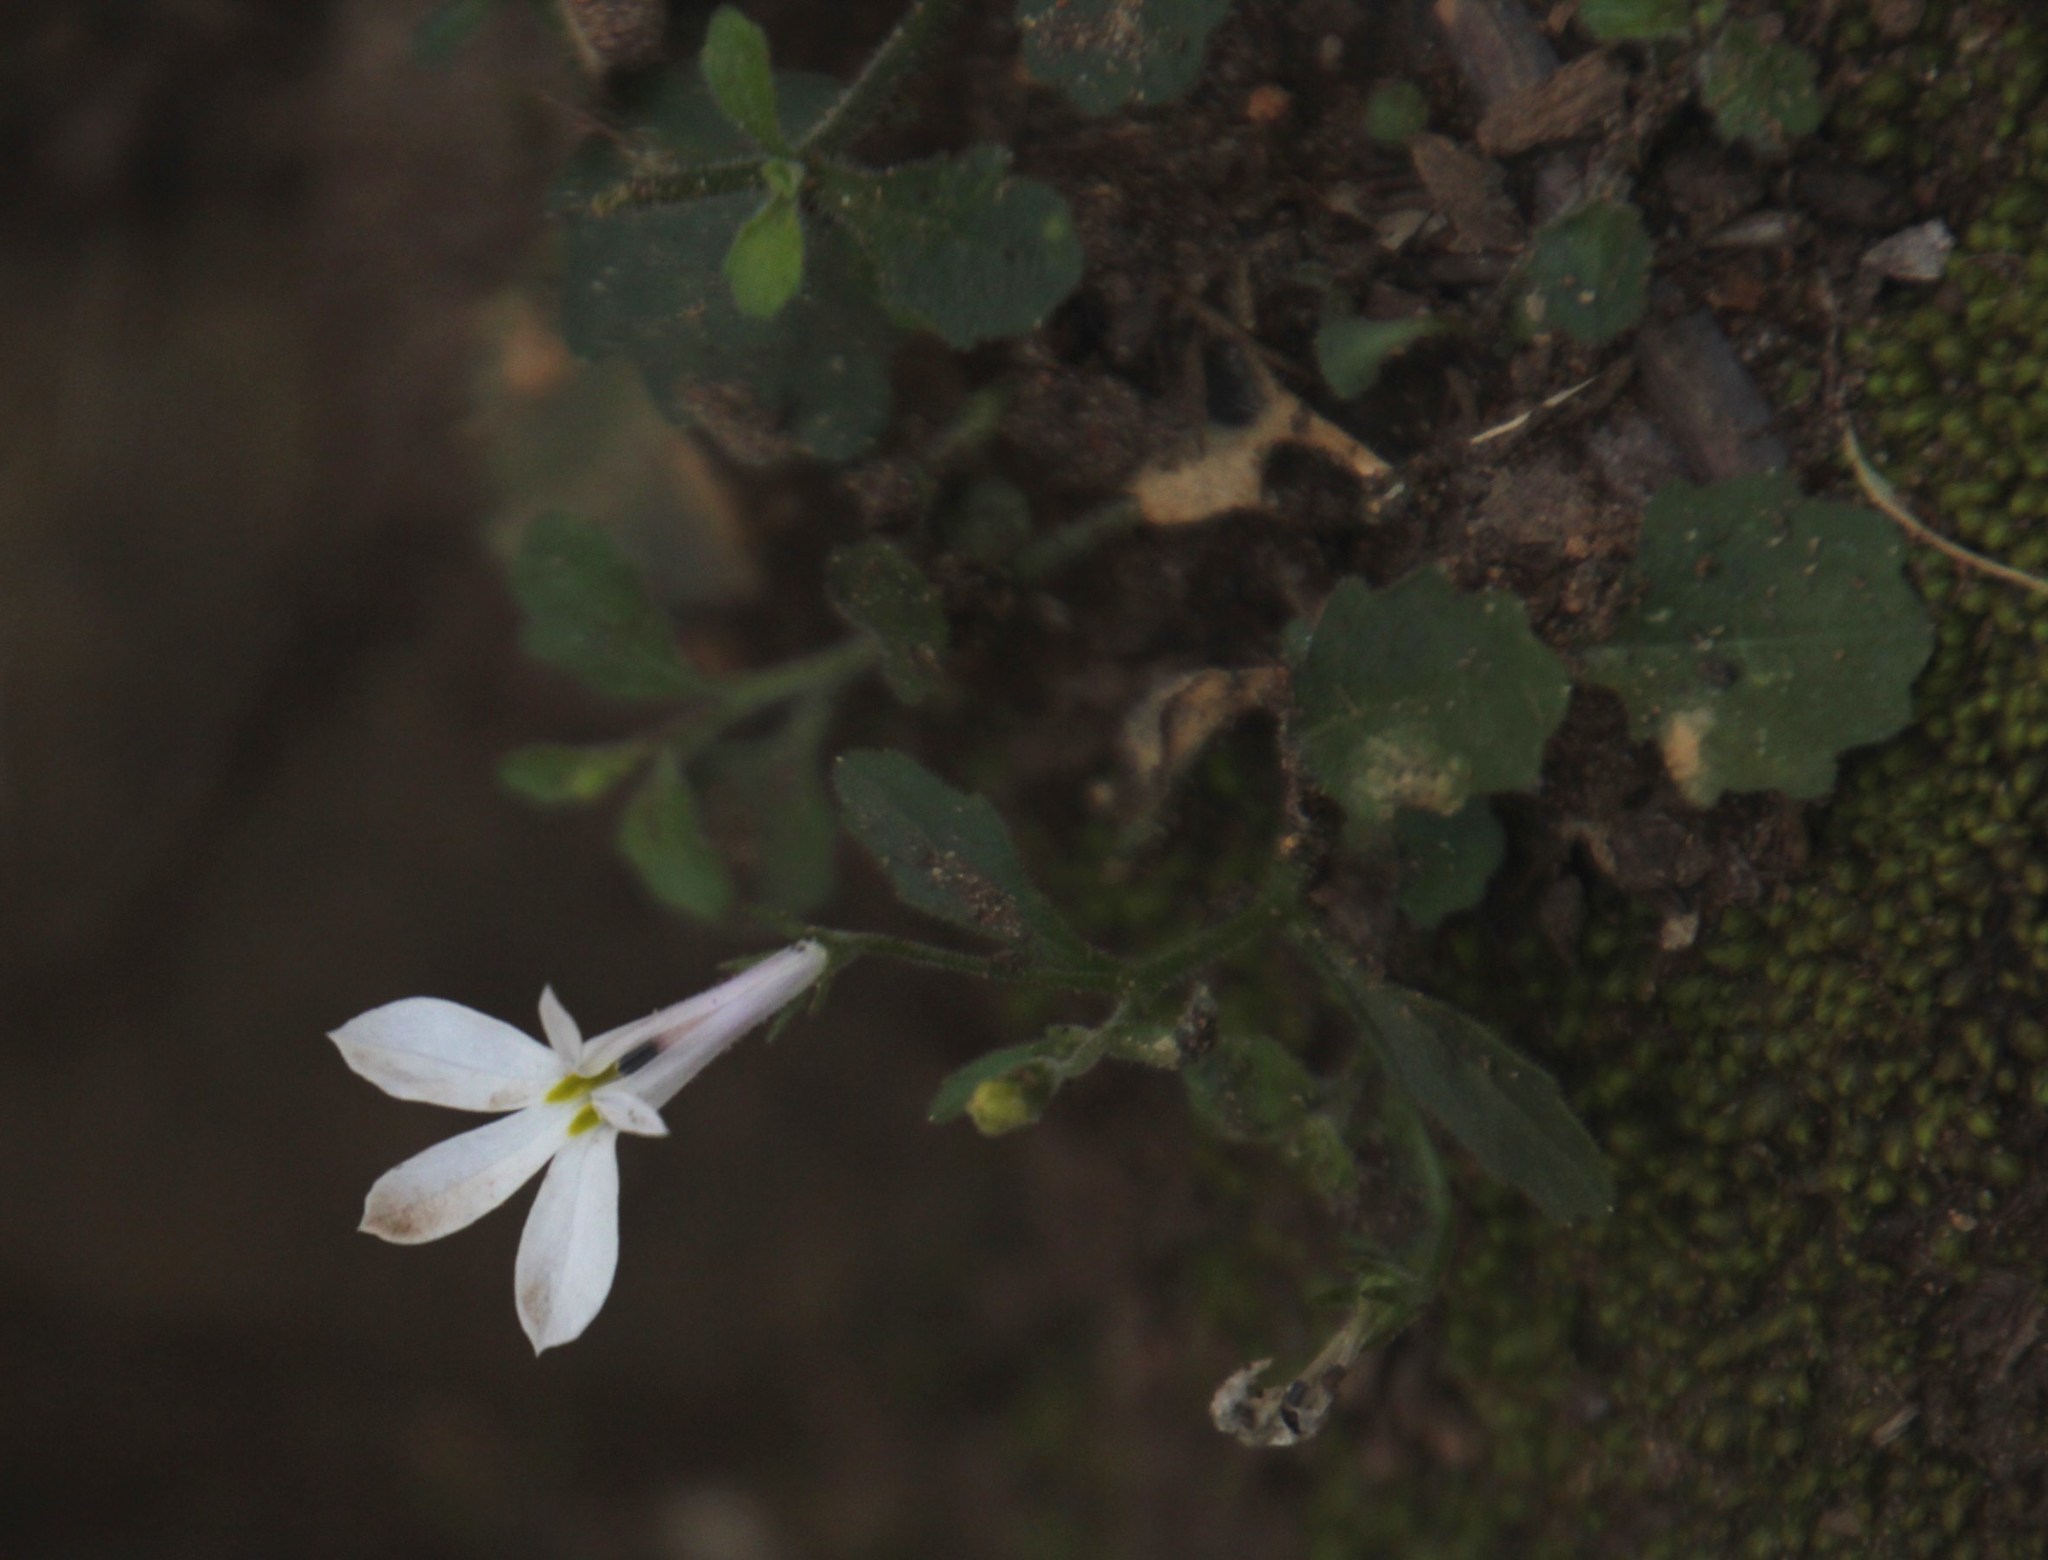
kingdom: Plantae
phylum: Tracheophyta
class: Magnoliopsida
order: Asterales
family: Campanulaceae
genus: Lobelia
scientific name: Lobelia pubescens
